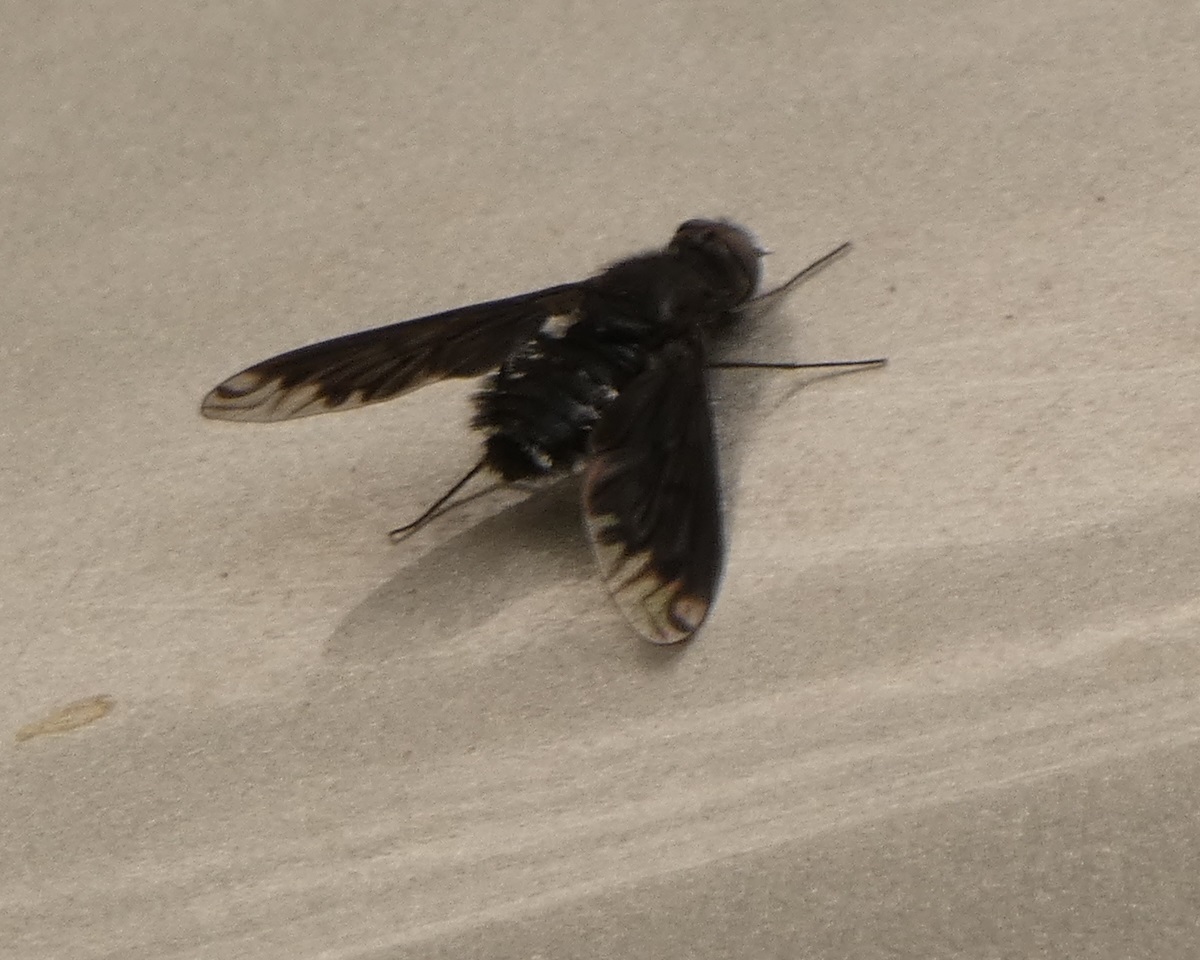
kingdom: Animalia
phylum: Arthropoda
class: Insecta
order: Diptera
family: Bombyliidae
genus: Anthrax
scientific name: Anthrax anthrax
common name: Anthracite bee-fly
